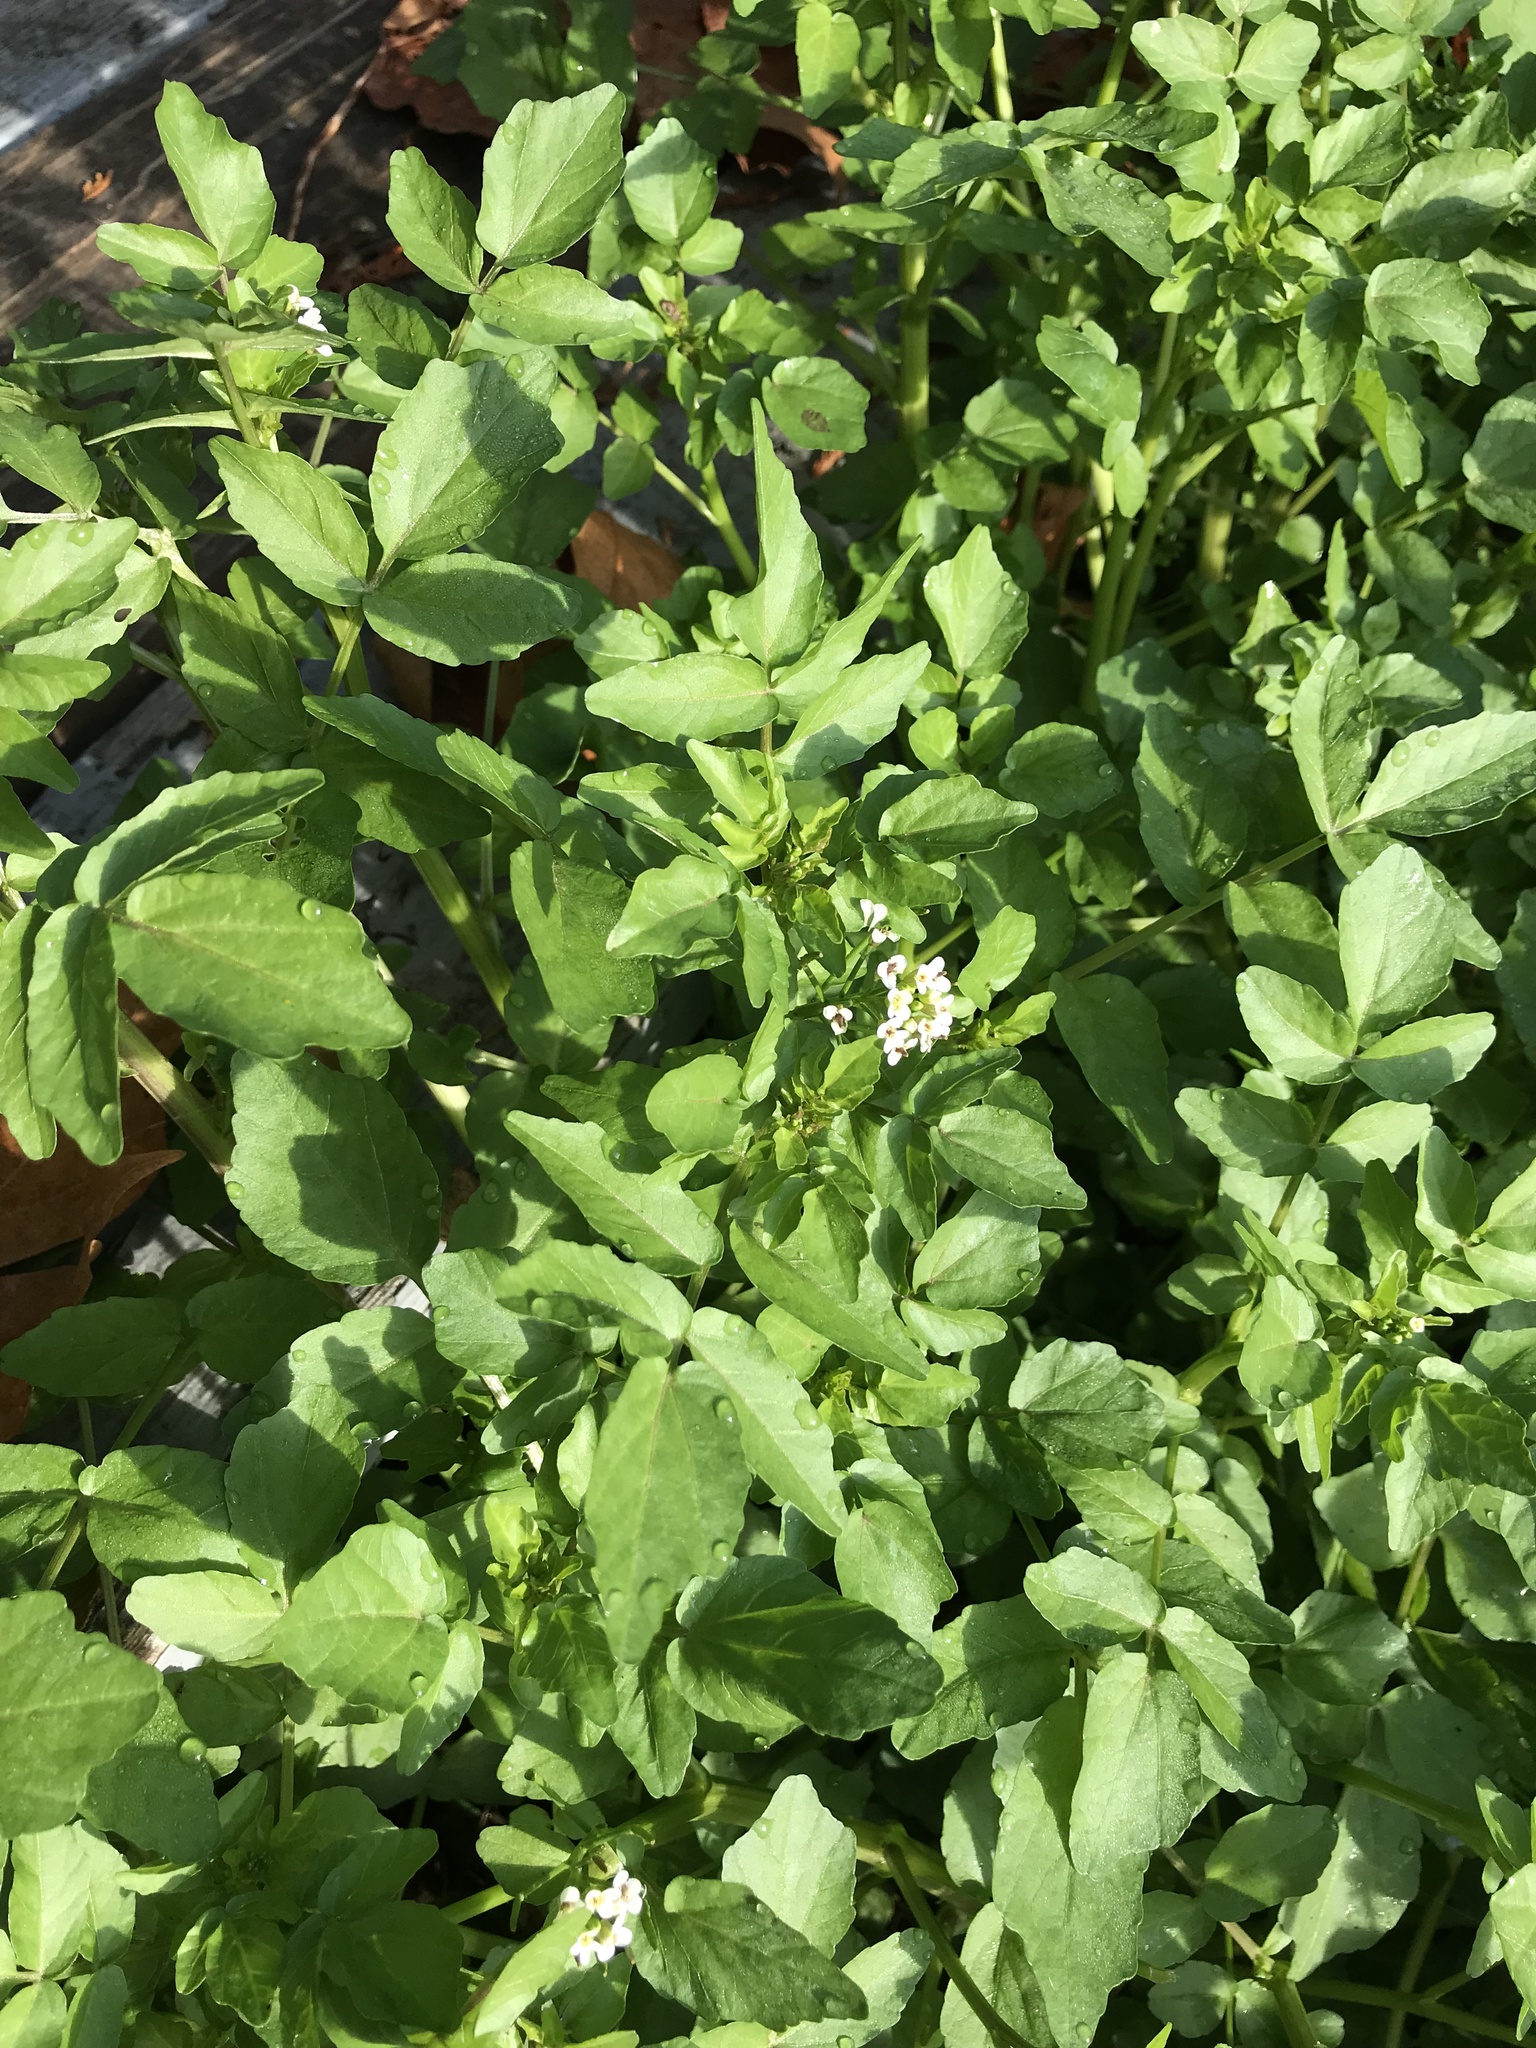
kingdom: Plantae
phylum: Tracheophyta
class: Magnoliopsida
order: Brassicales
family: Brassicaceae
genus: Nasturtium
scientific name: Nasturtium officinale
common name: Watercress
